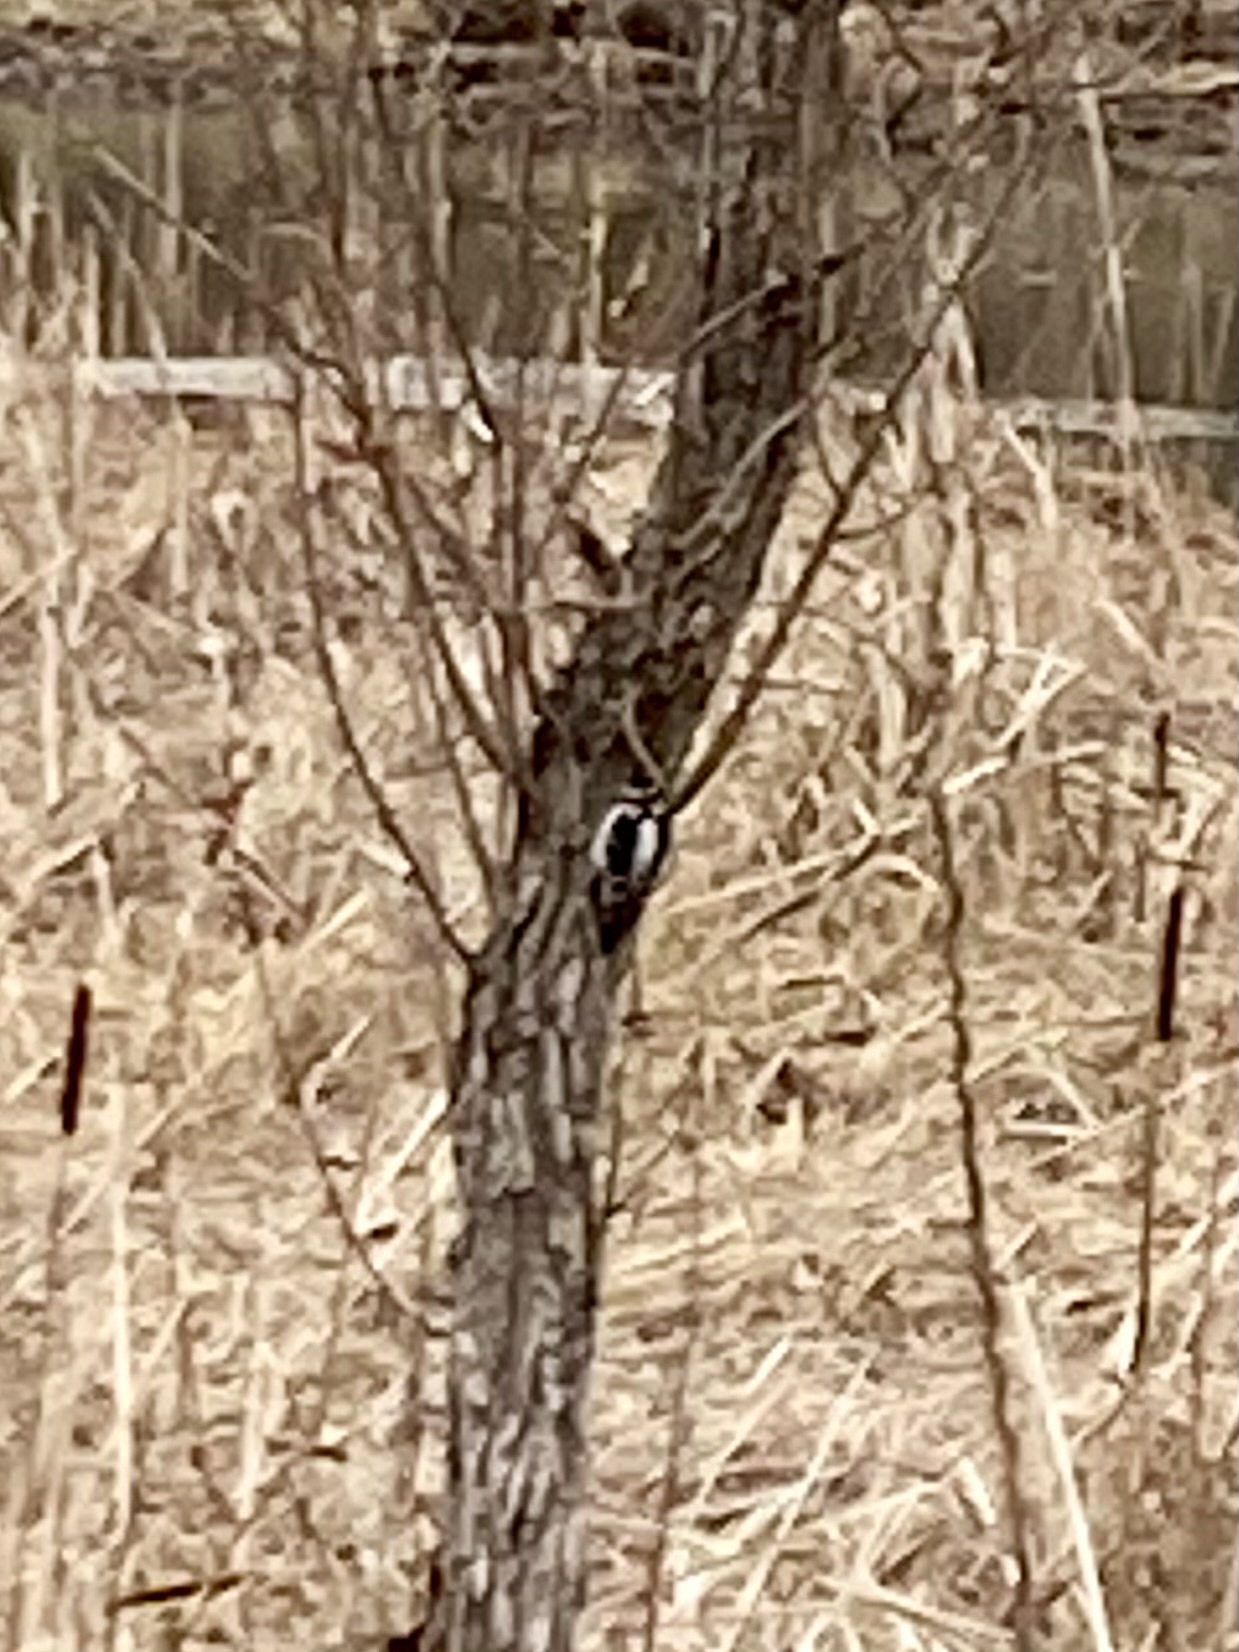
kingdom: Animalia
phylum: Chordata
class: Aves
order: Piciformes
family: Picidae
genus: Dryobates
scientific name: Dryobates pubescens
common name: Downy woodpecker
